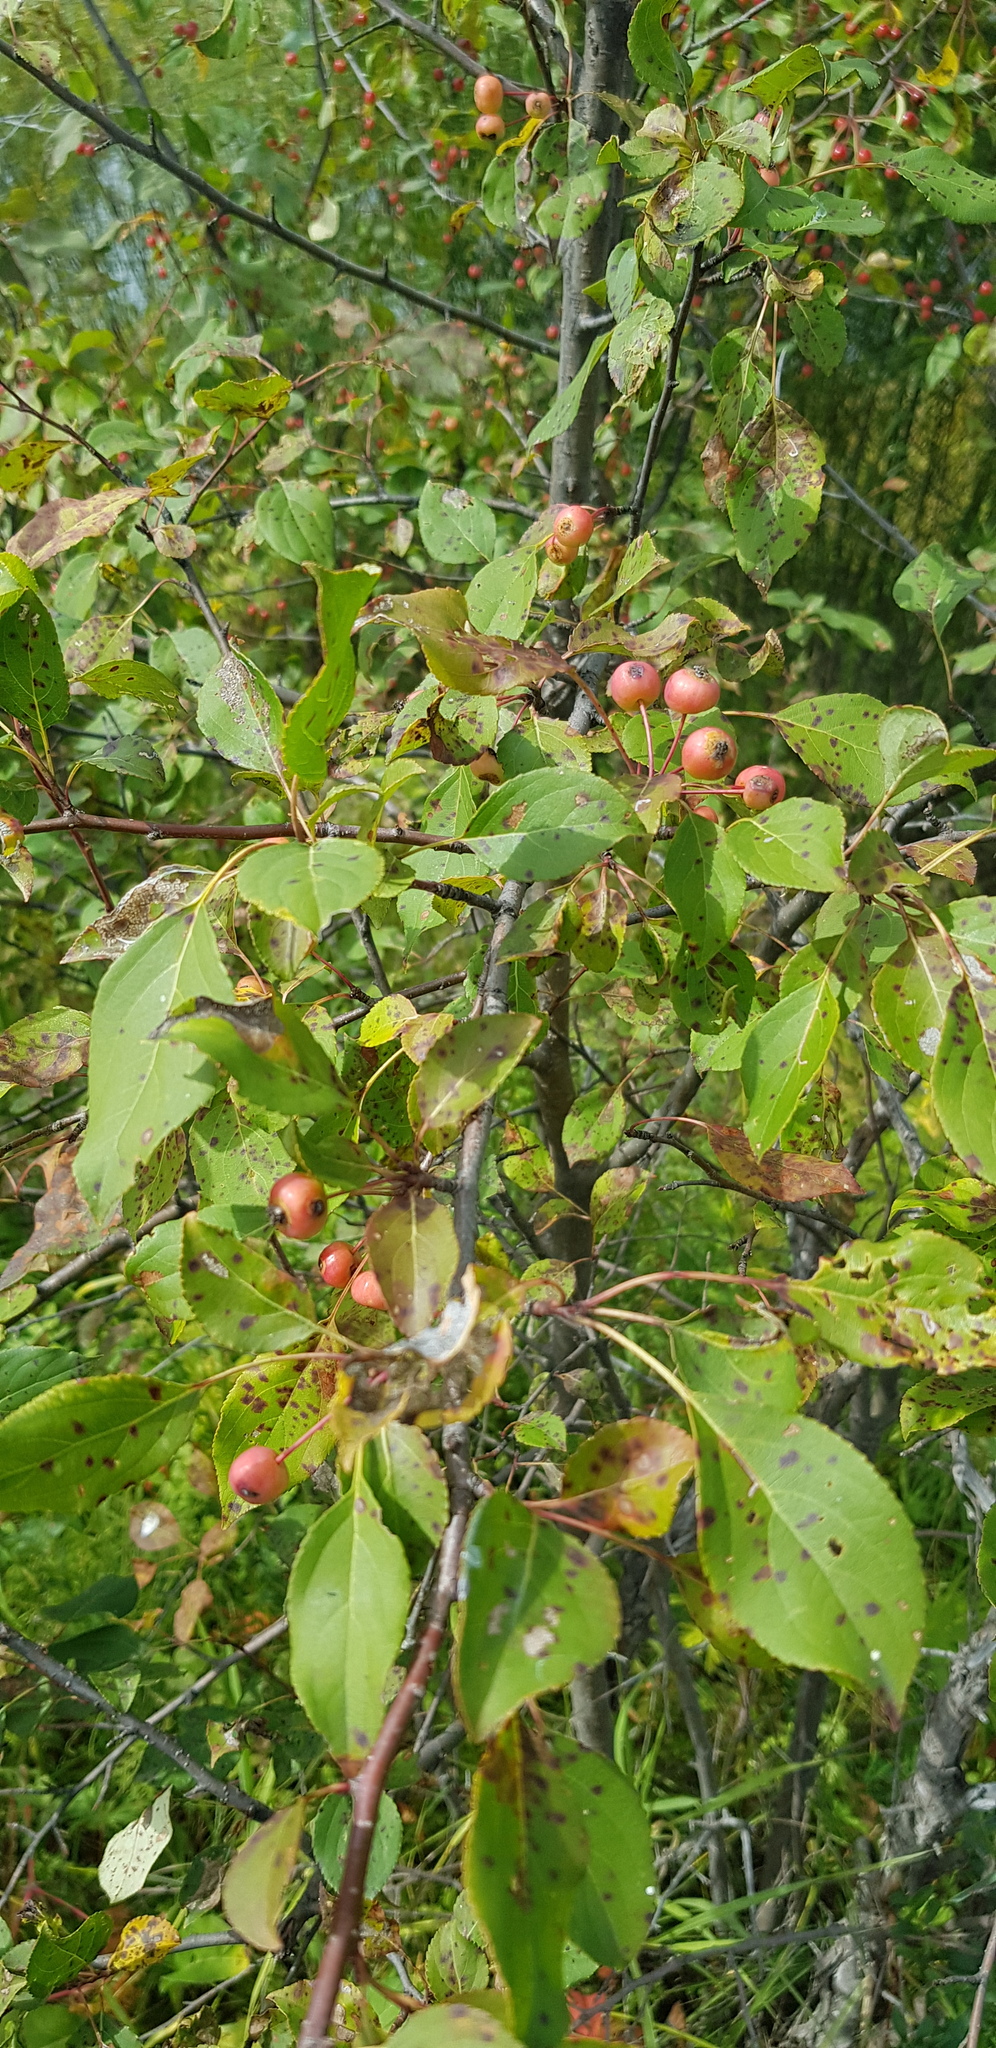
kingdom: Plantae
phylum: Tracheophyta
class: Magnoliopsida
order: Rosales
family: Rosaceae
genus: Malus
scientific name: Malus baccata
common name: Siberian crab
